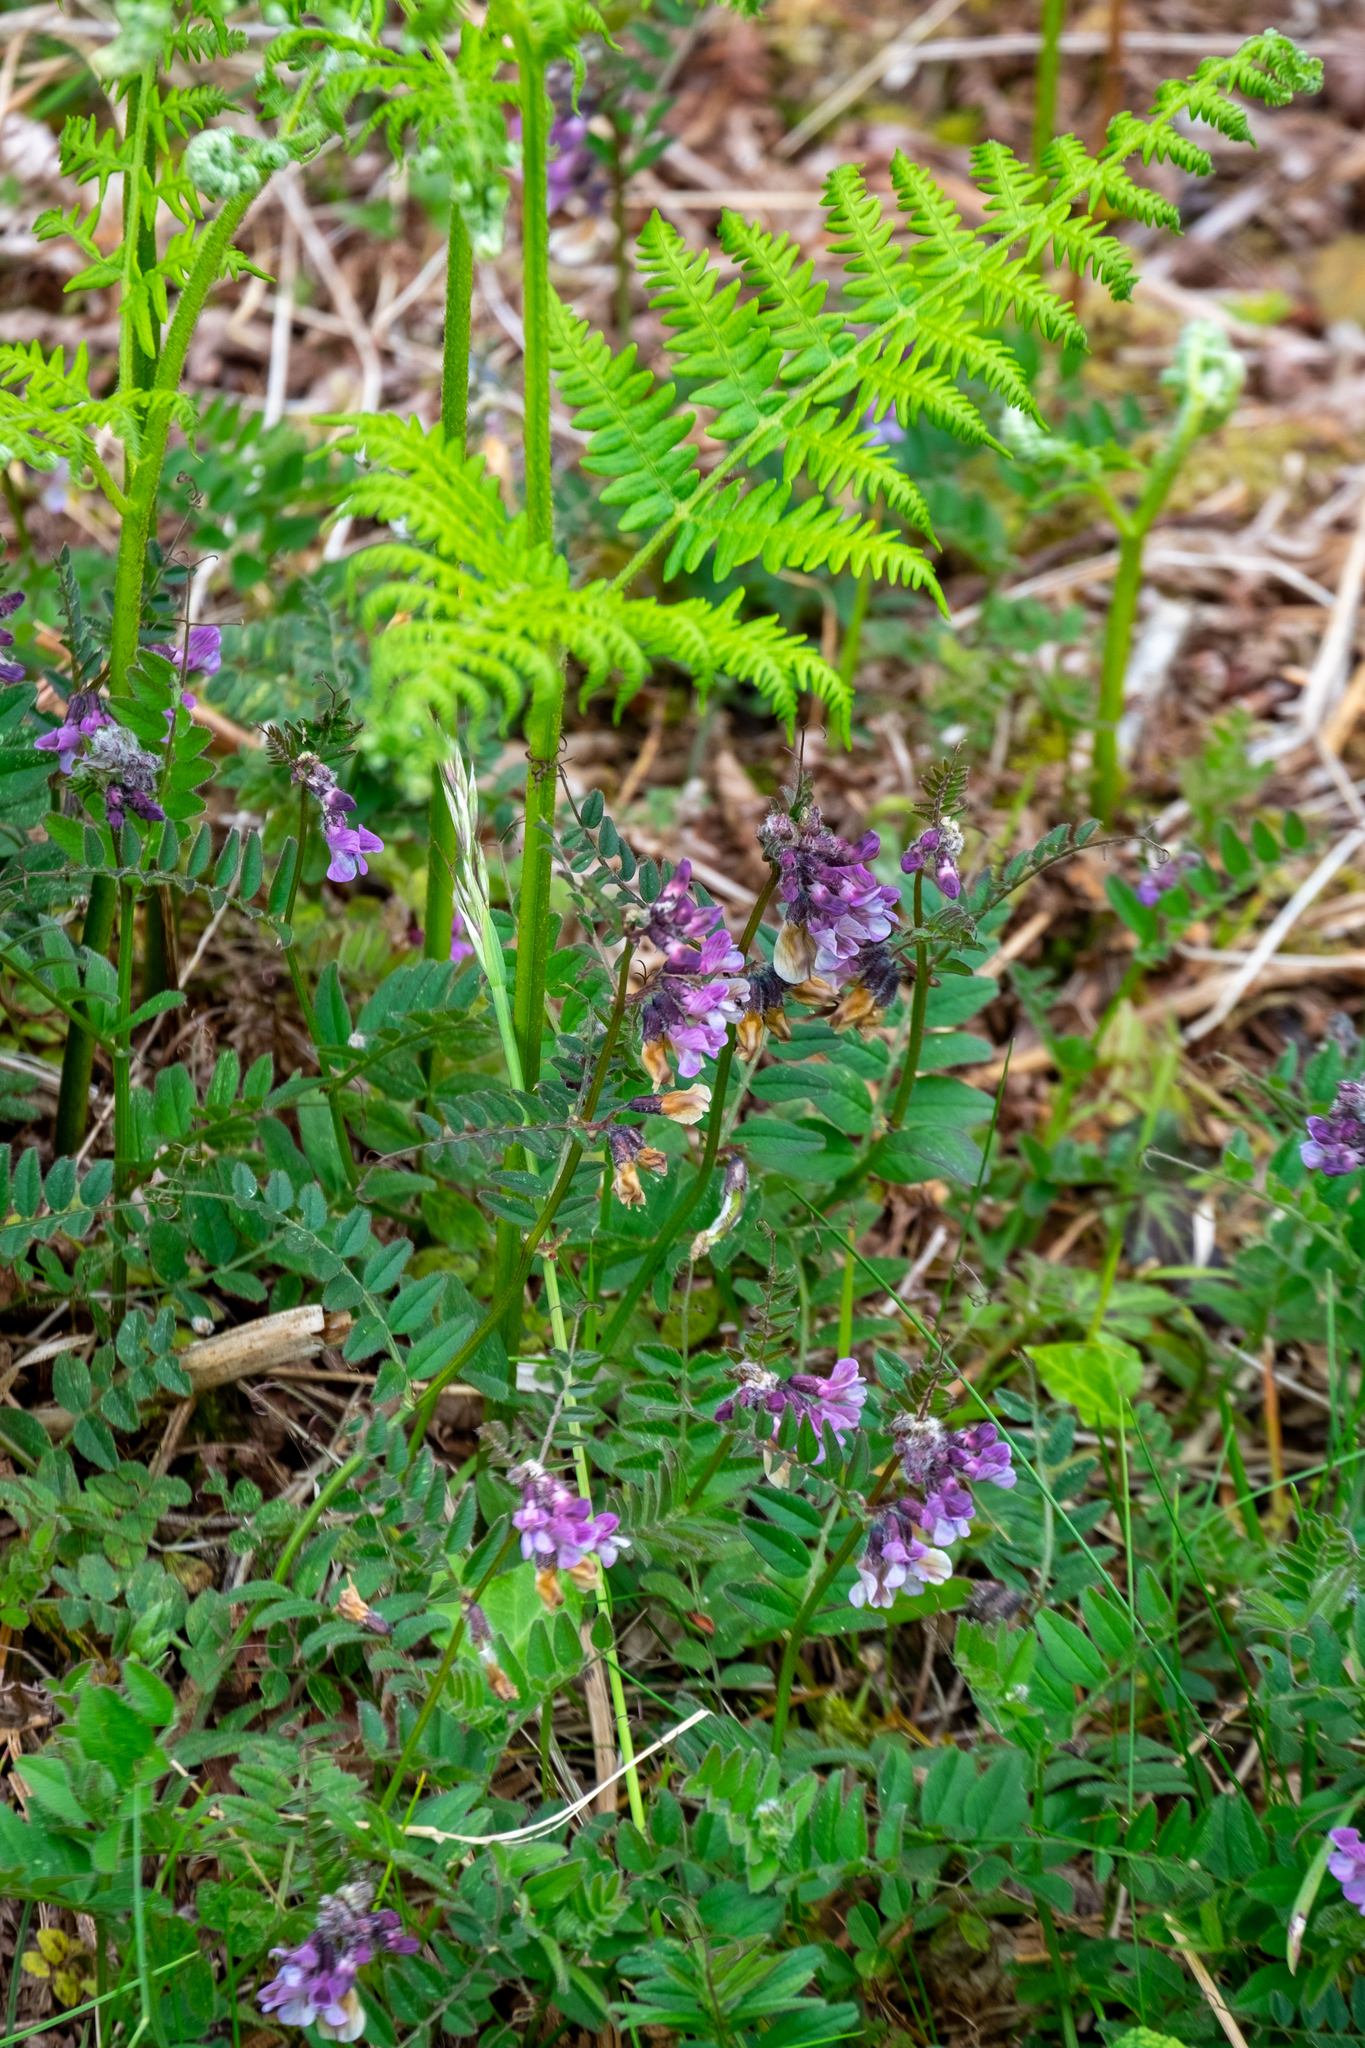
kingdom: Plantae
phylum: Tracheophyta
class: Magnoliopsida
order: Fabales
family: Fabaceae
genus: Vicia
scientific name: Vicia sepium
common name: Bush vetch
